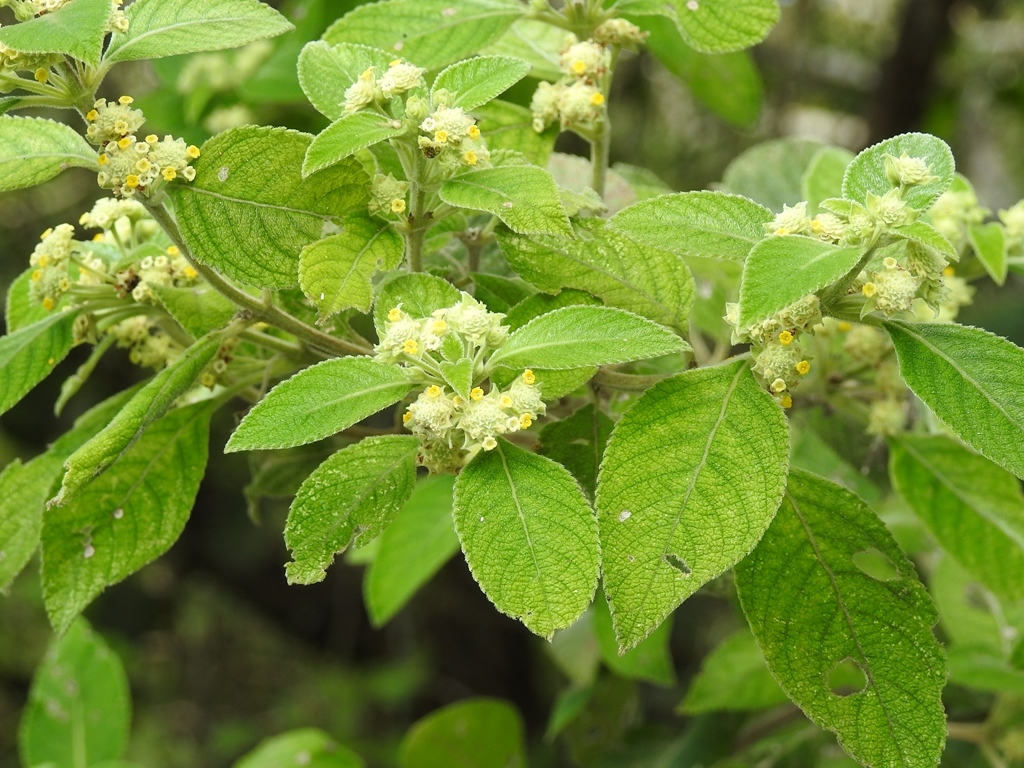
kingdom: Plantae
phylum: Tracheophyta
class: Magnoliopsida
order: Lamiales
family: Verbenaceae
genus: Lippia
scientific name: Lippia umbellata
